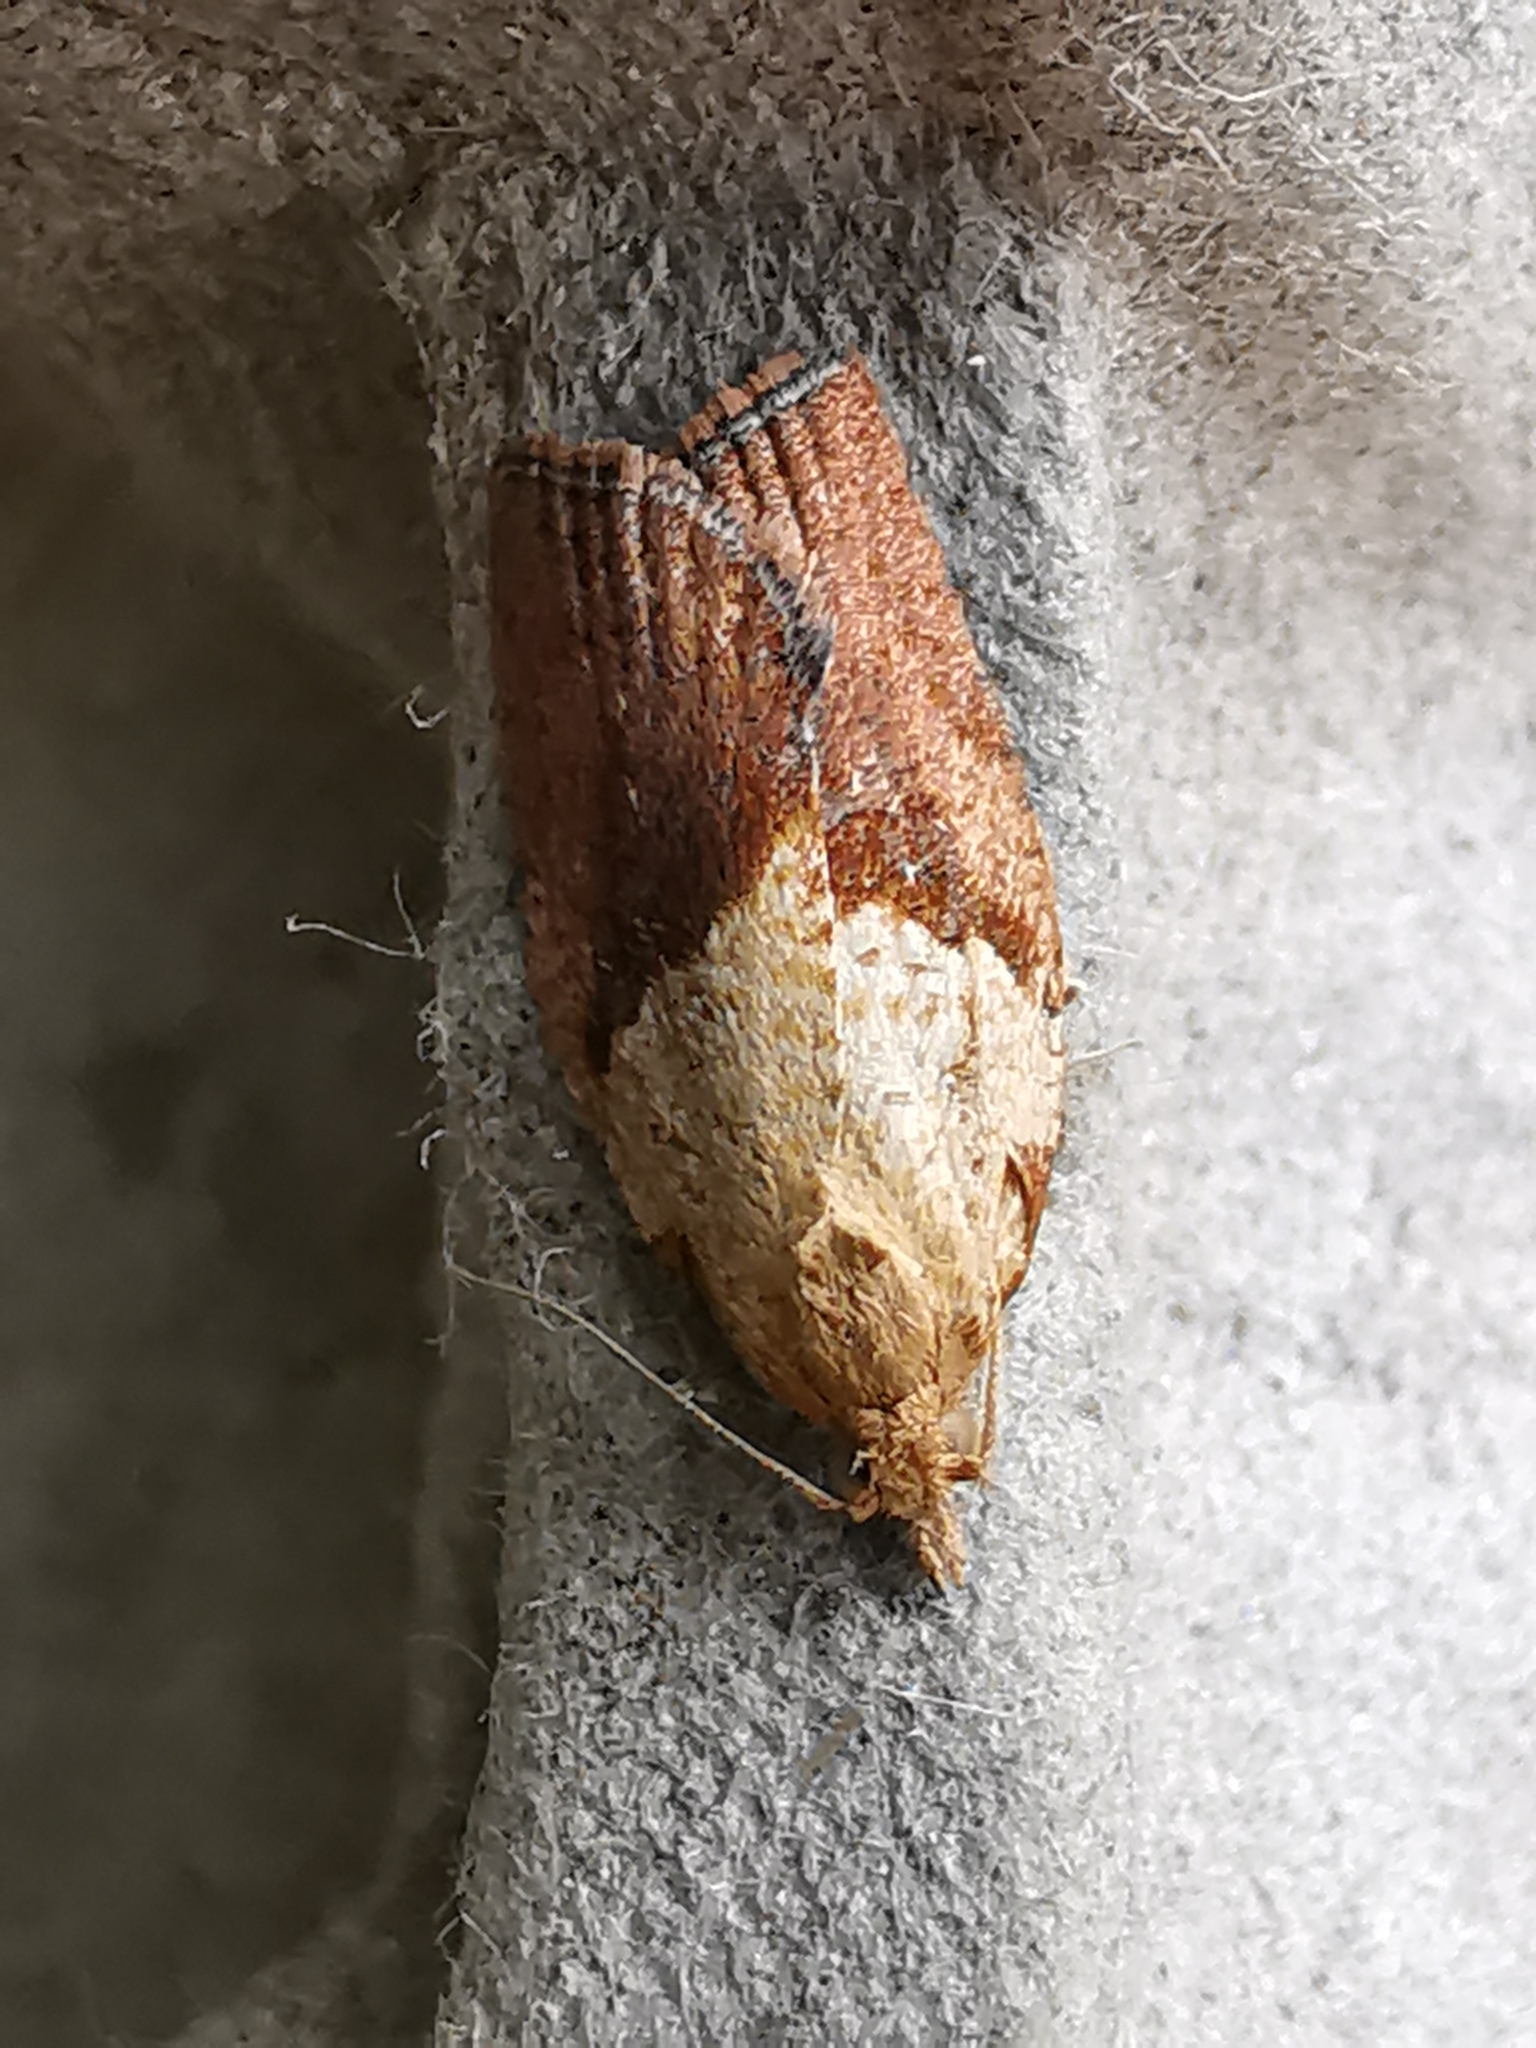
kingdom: Animalia
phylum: Arthropoda
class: Insecta
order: Lepidoptera
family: Tortricidae
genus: Epiphyas
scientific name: Epiphyas postvittana
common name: Light brown apple moth
